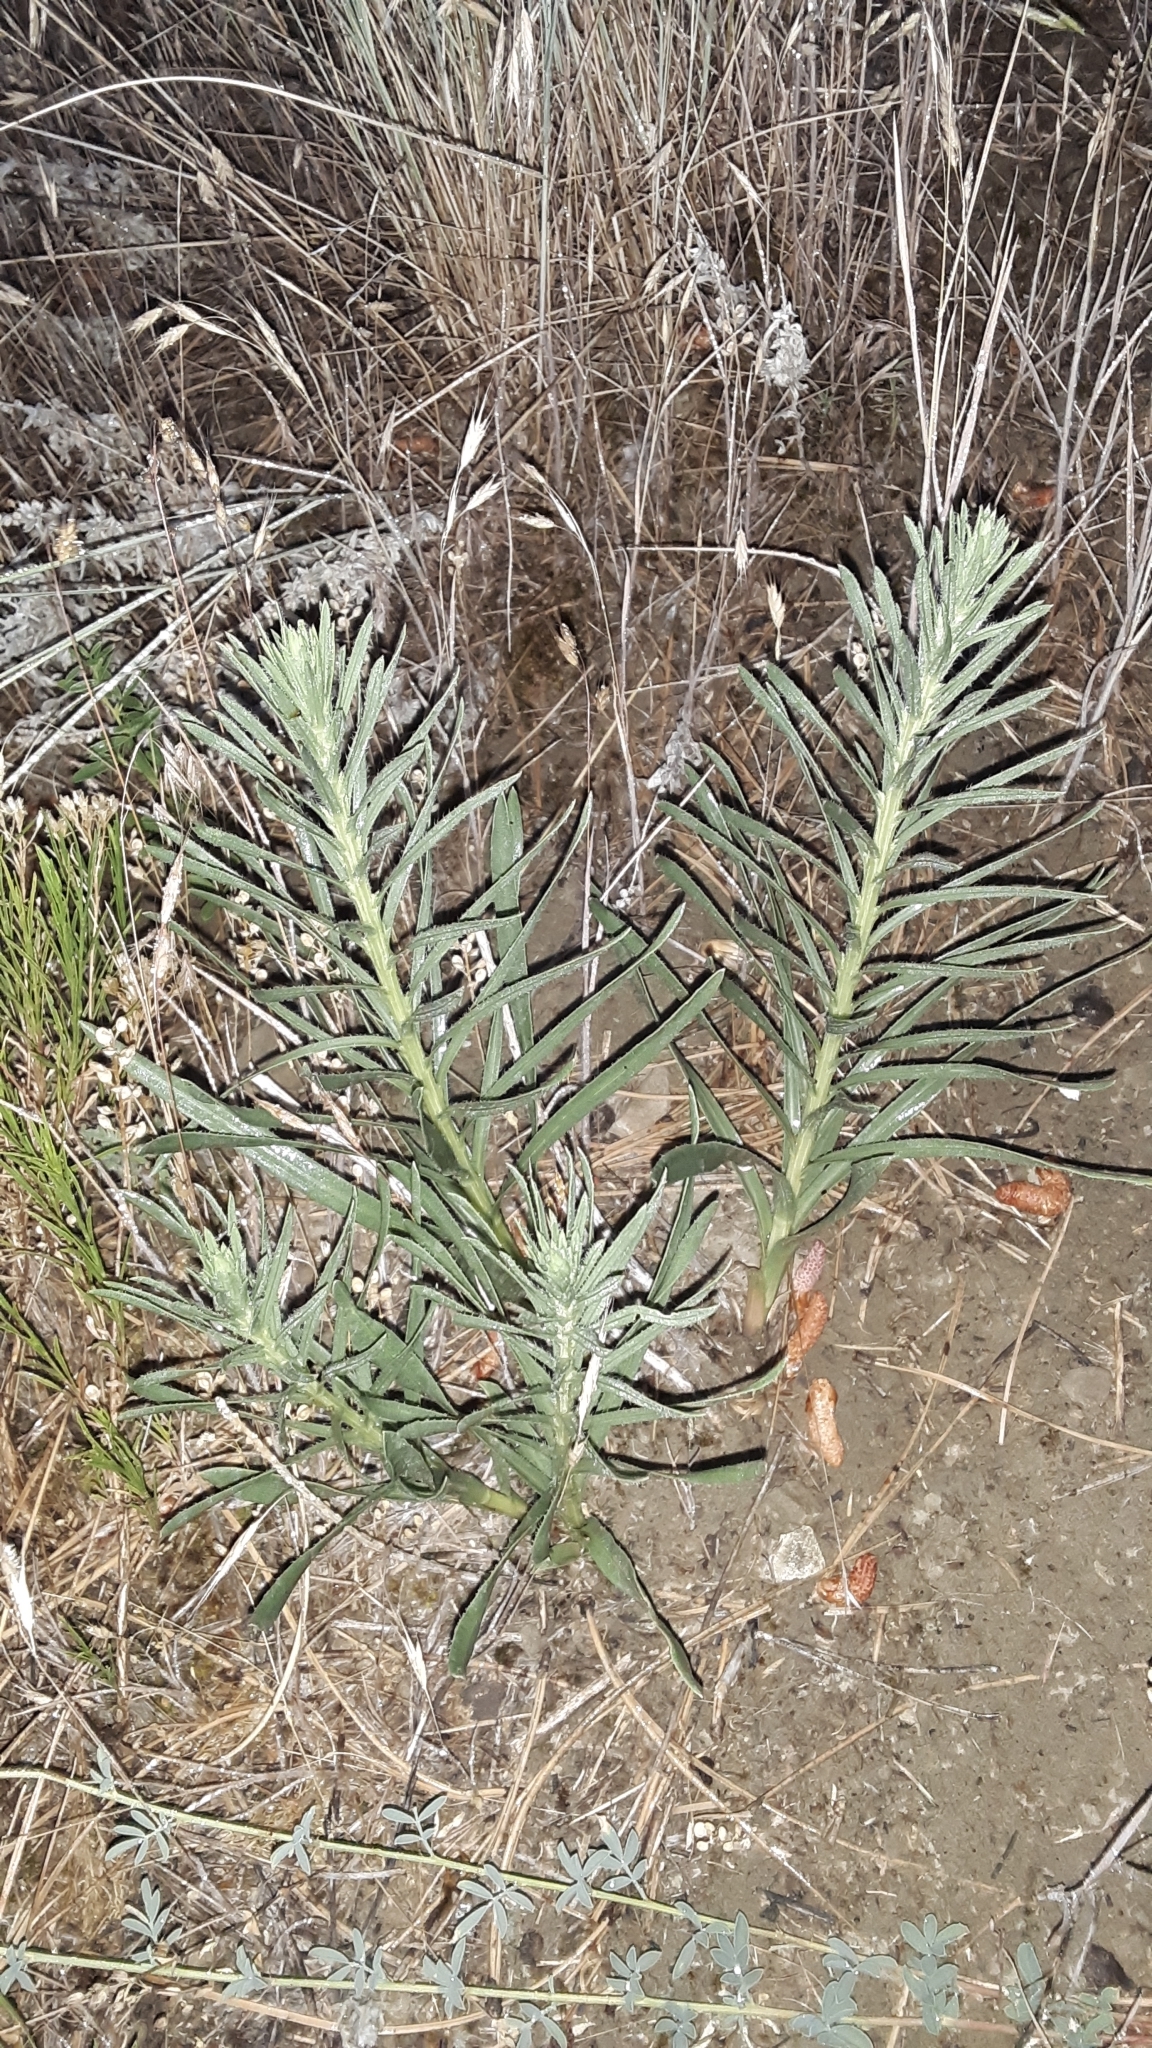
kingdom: Plantae
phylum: Tracheophyta
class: Magnoliopsida
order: Asterales
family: Asteraceae
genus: Liatris
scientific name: Liatris punctata
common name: Dotted gayfeather
